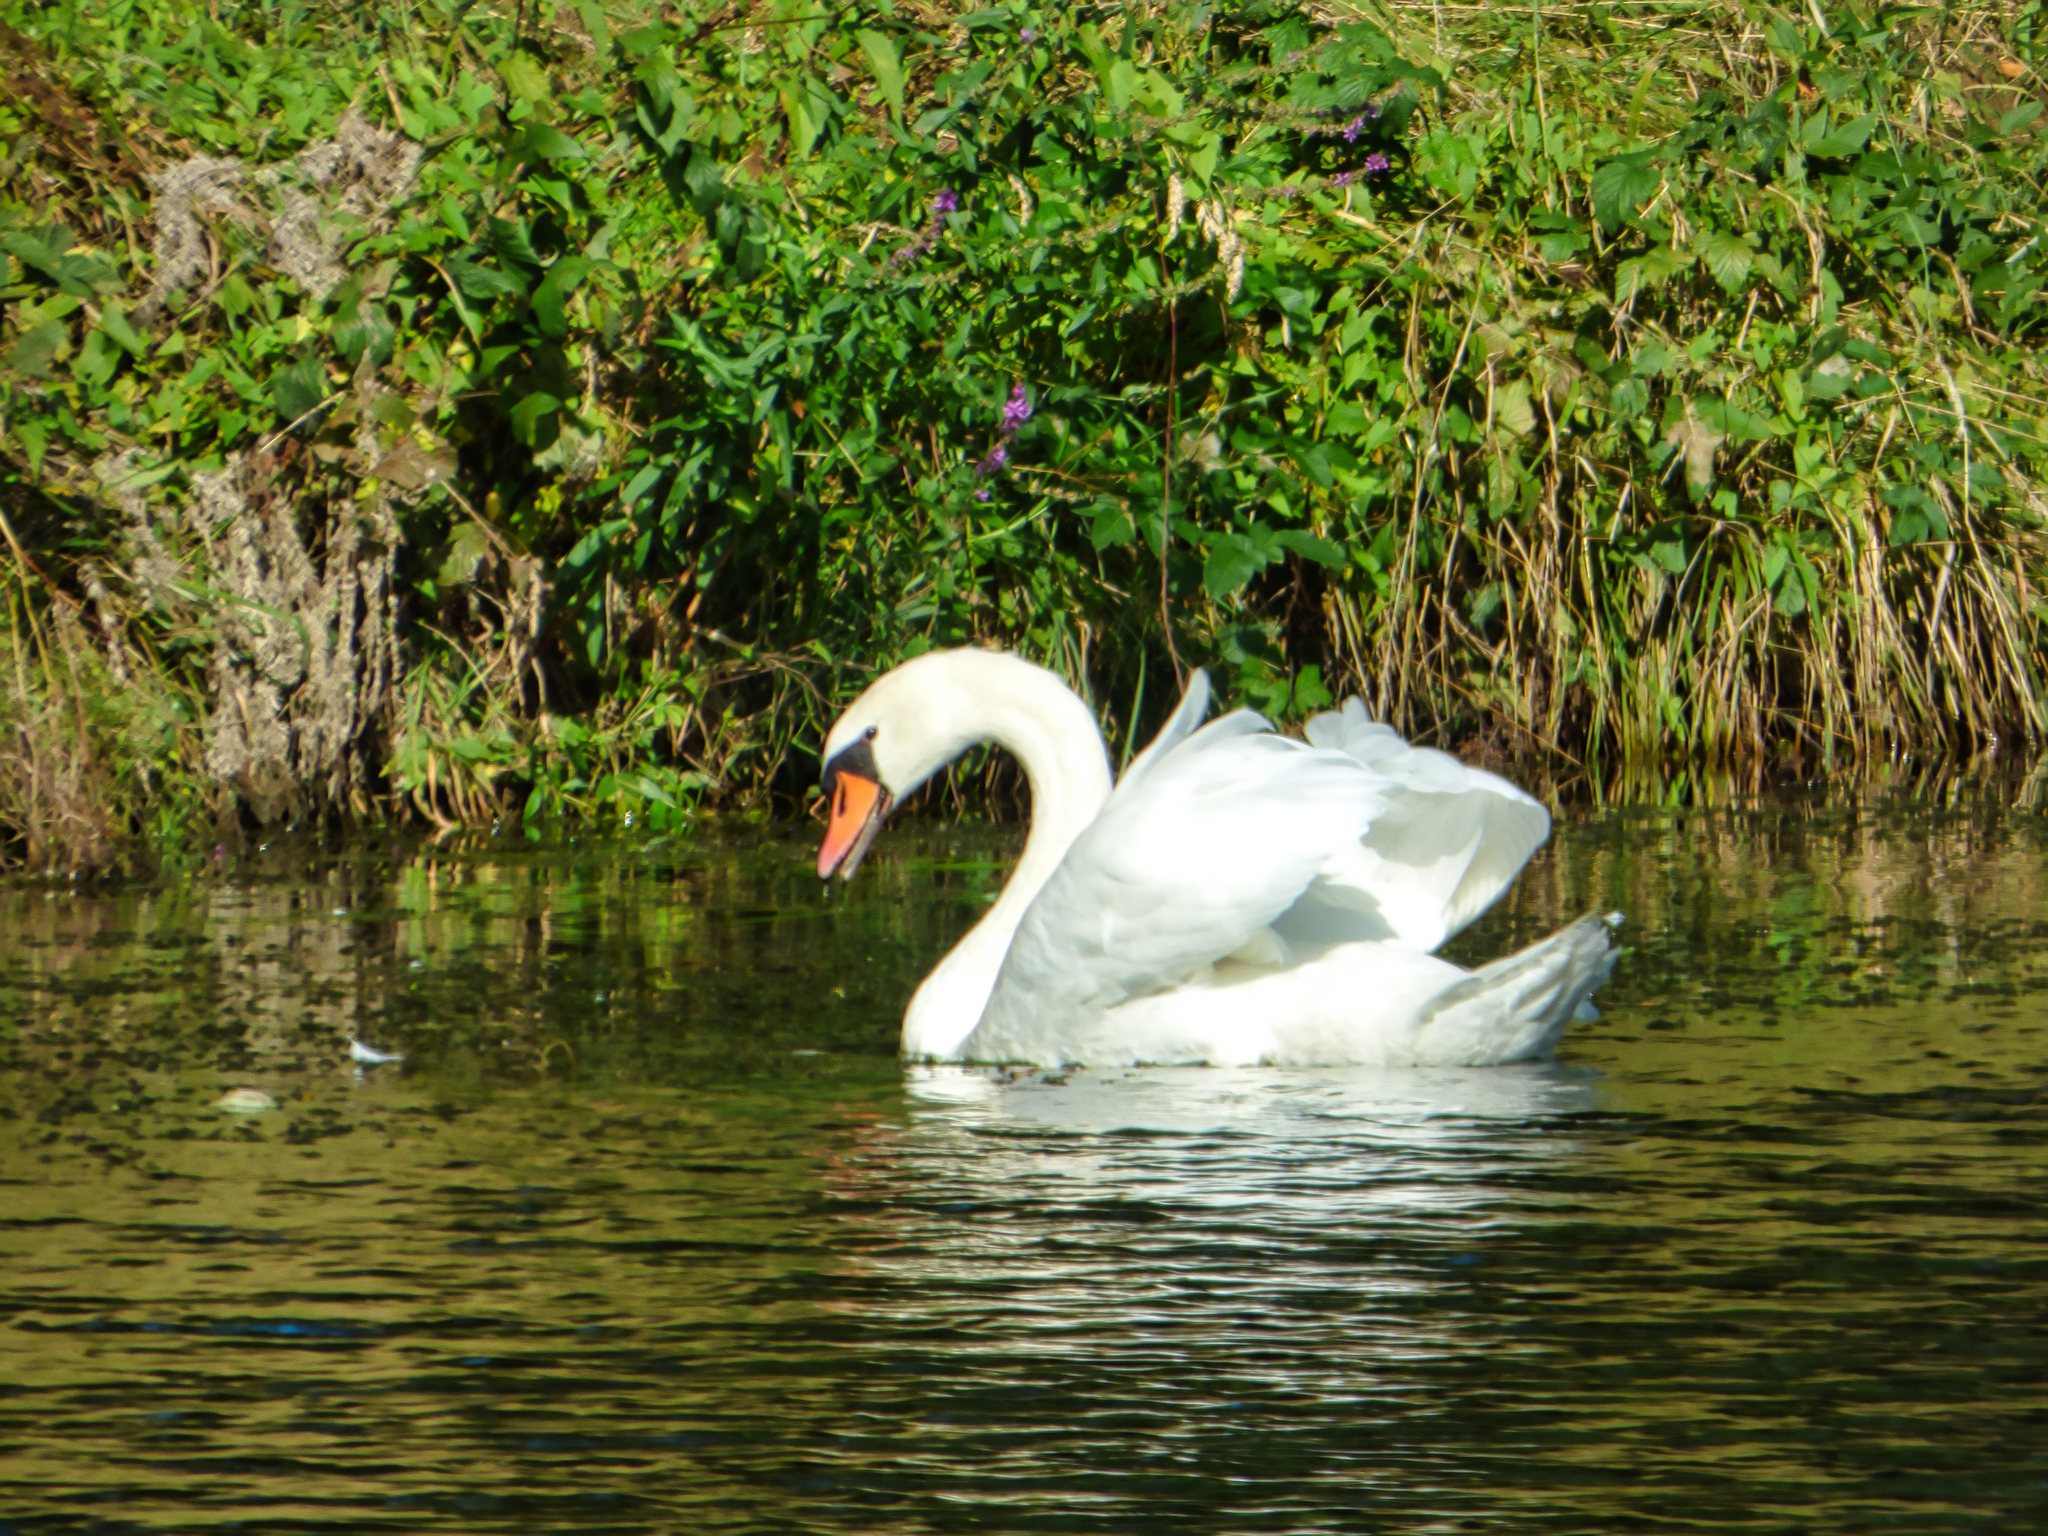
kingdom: Animalia
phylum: Chordata
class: Aves
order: Anseriformes
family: Anatidae
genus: Cygnus
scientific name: Cygnus olor
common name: Mute swan
